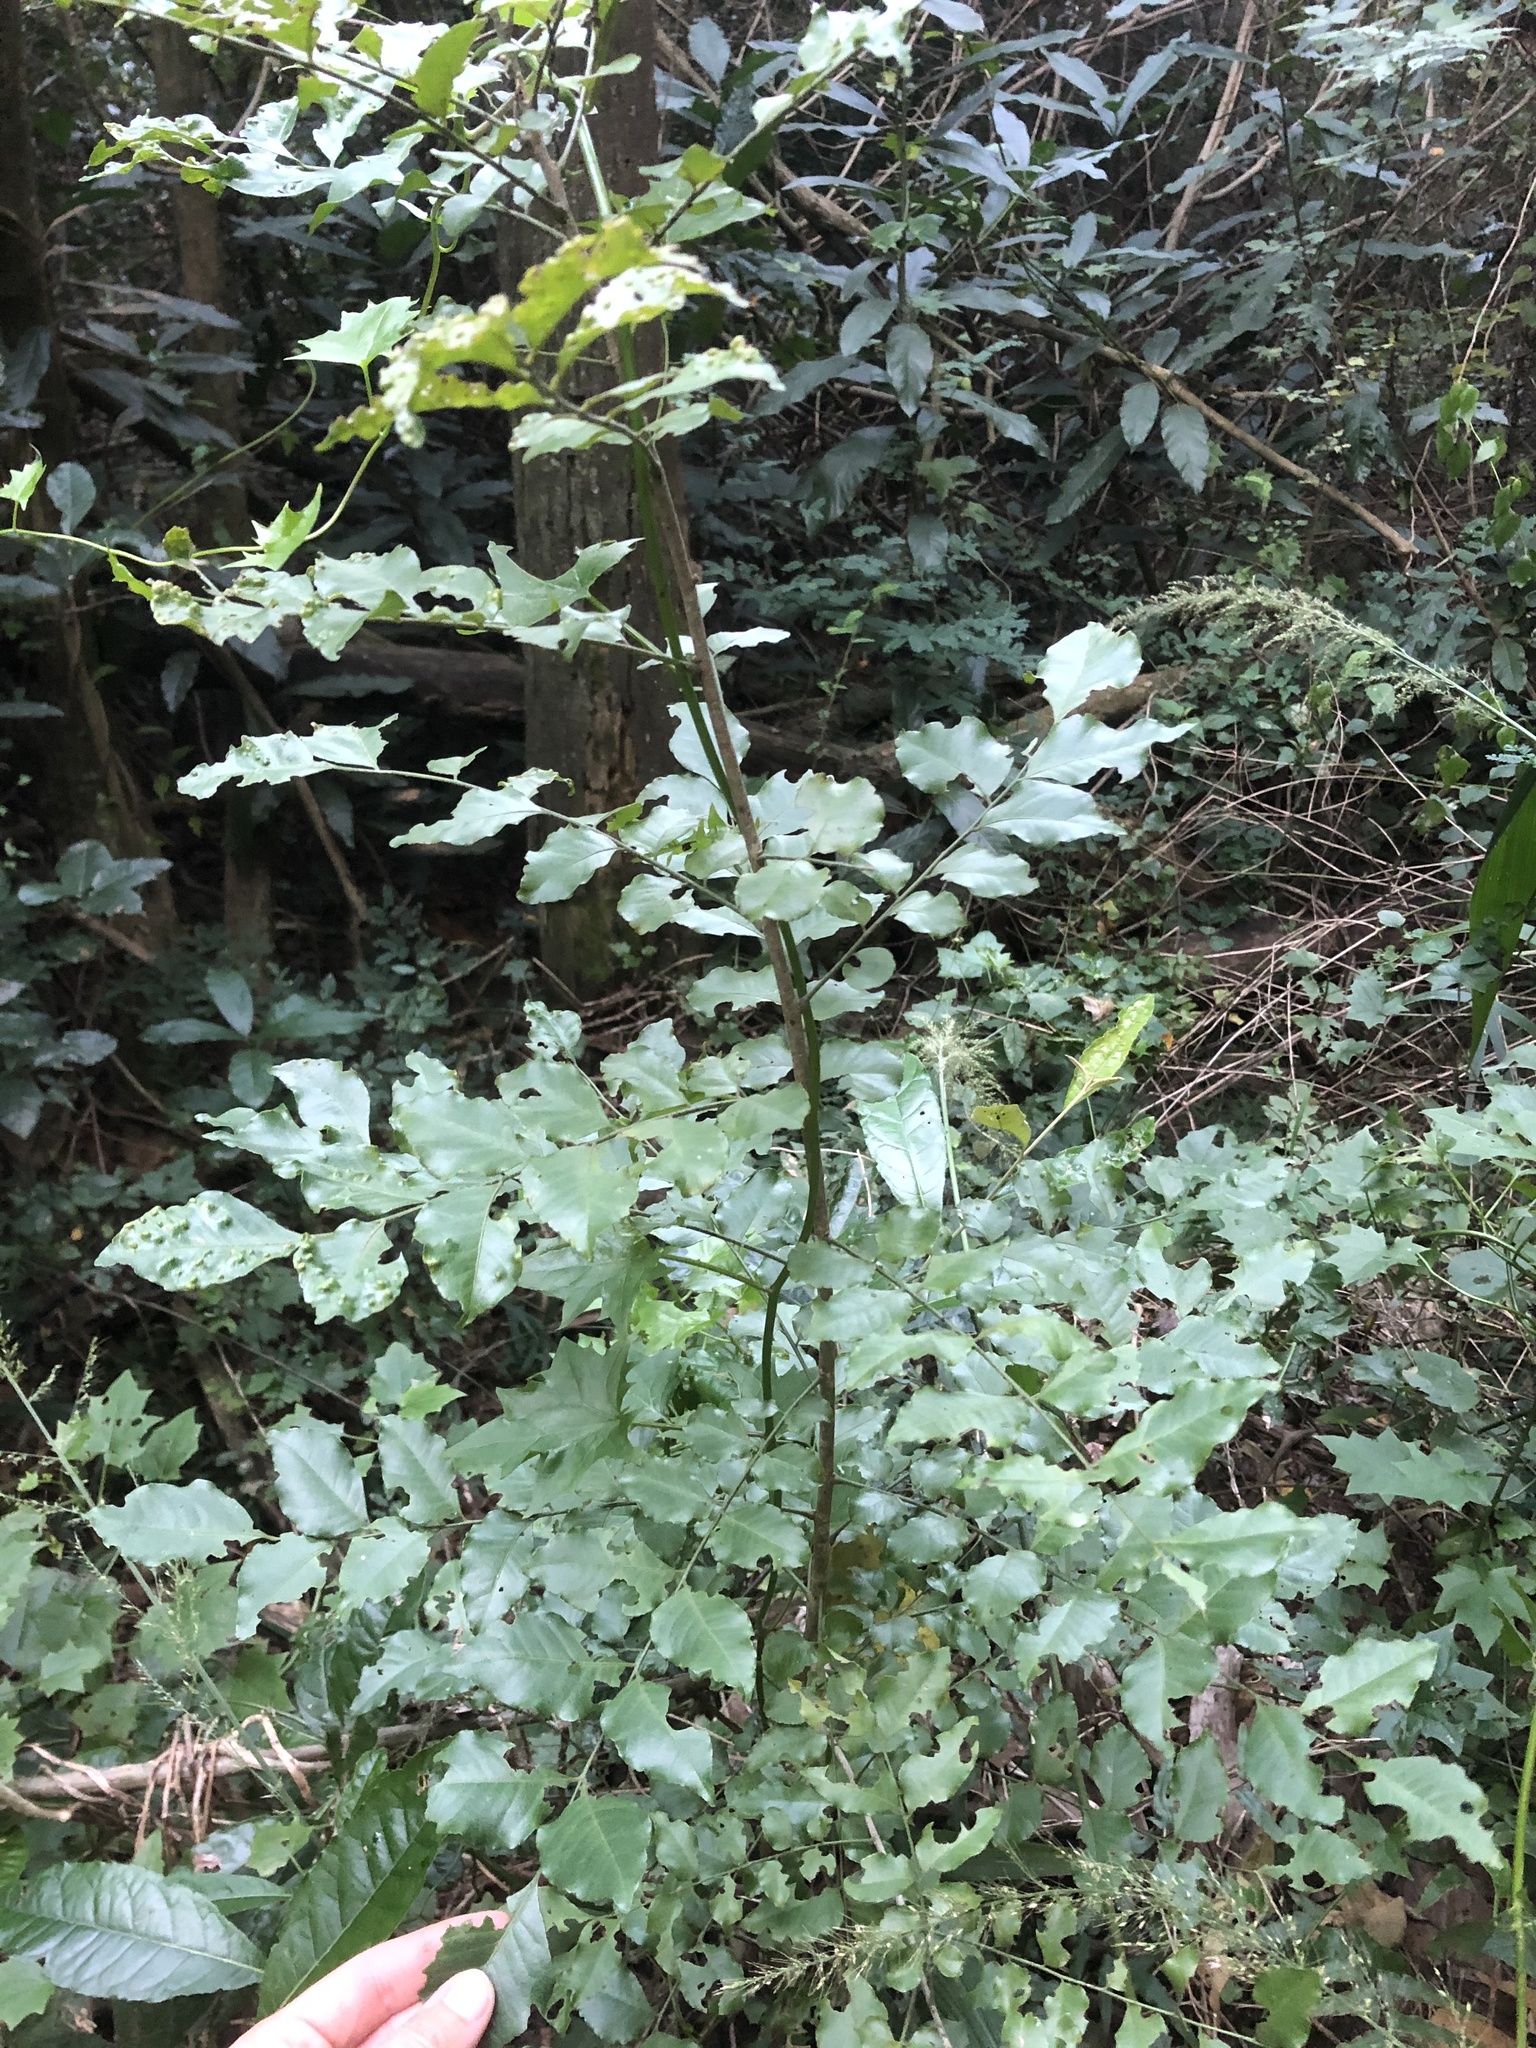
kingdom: Plantae
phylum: Tracheophyta
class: Magnoliopsida
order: Sapindales
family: Rutaceae
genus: Clausena
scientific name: Clausena anisata
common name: Horsewood
